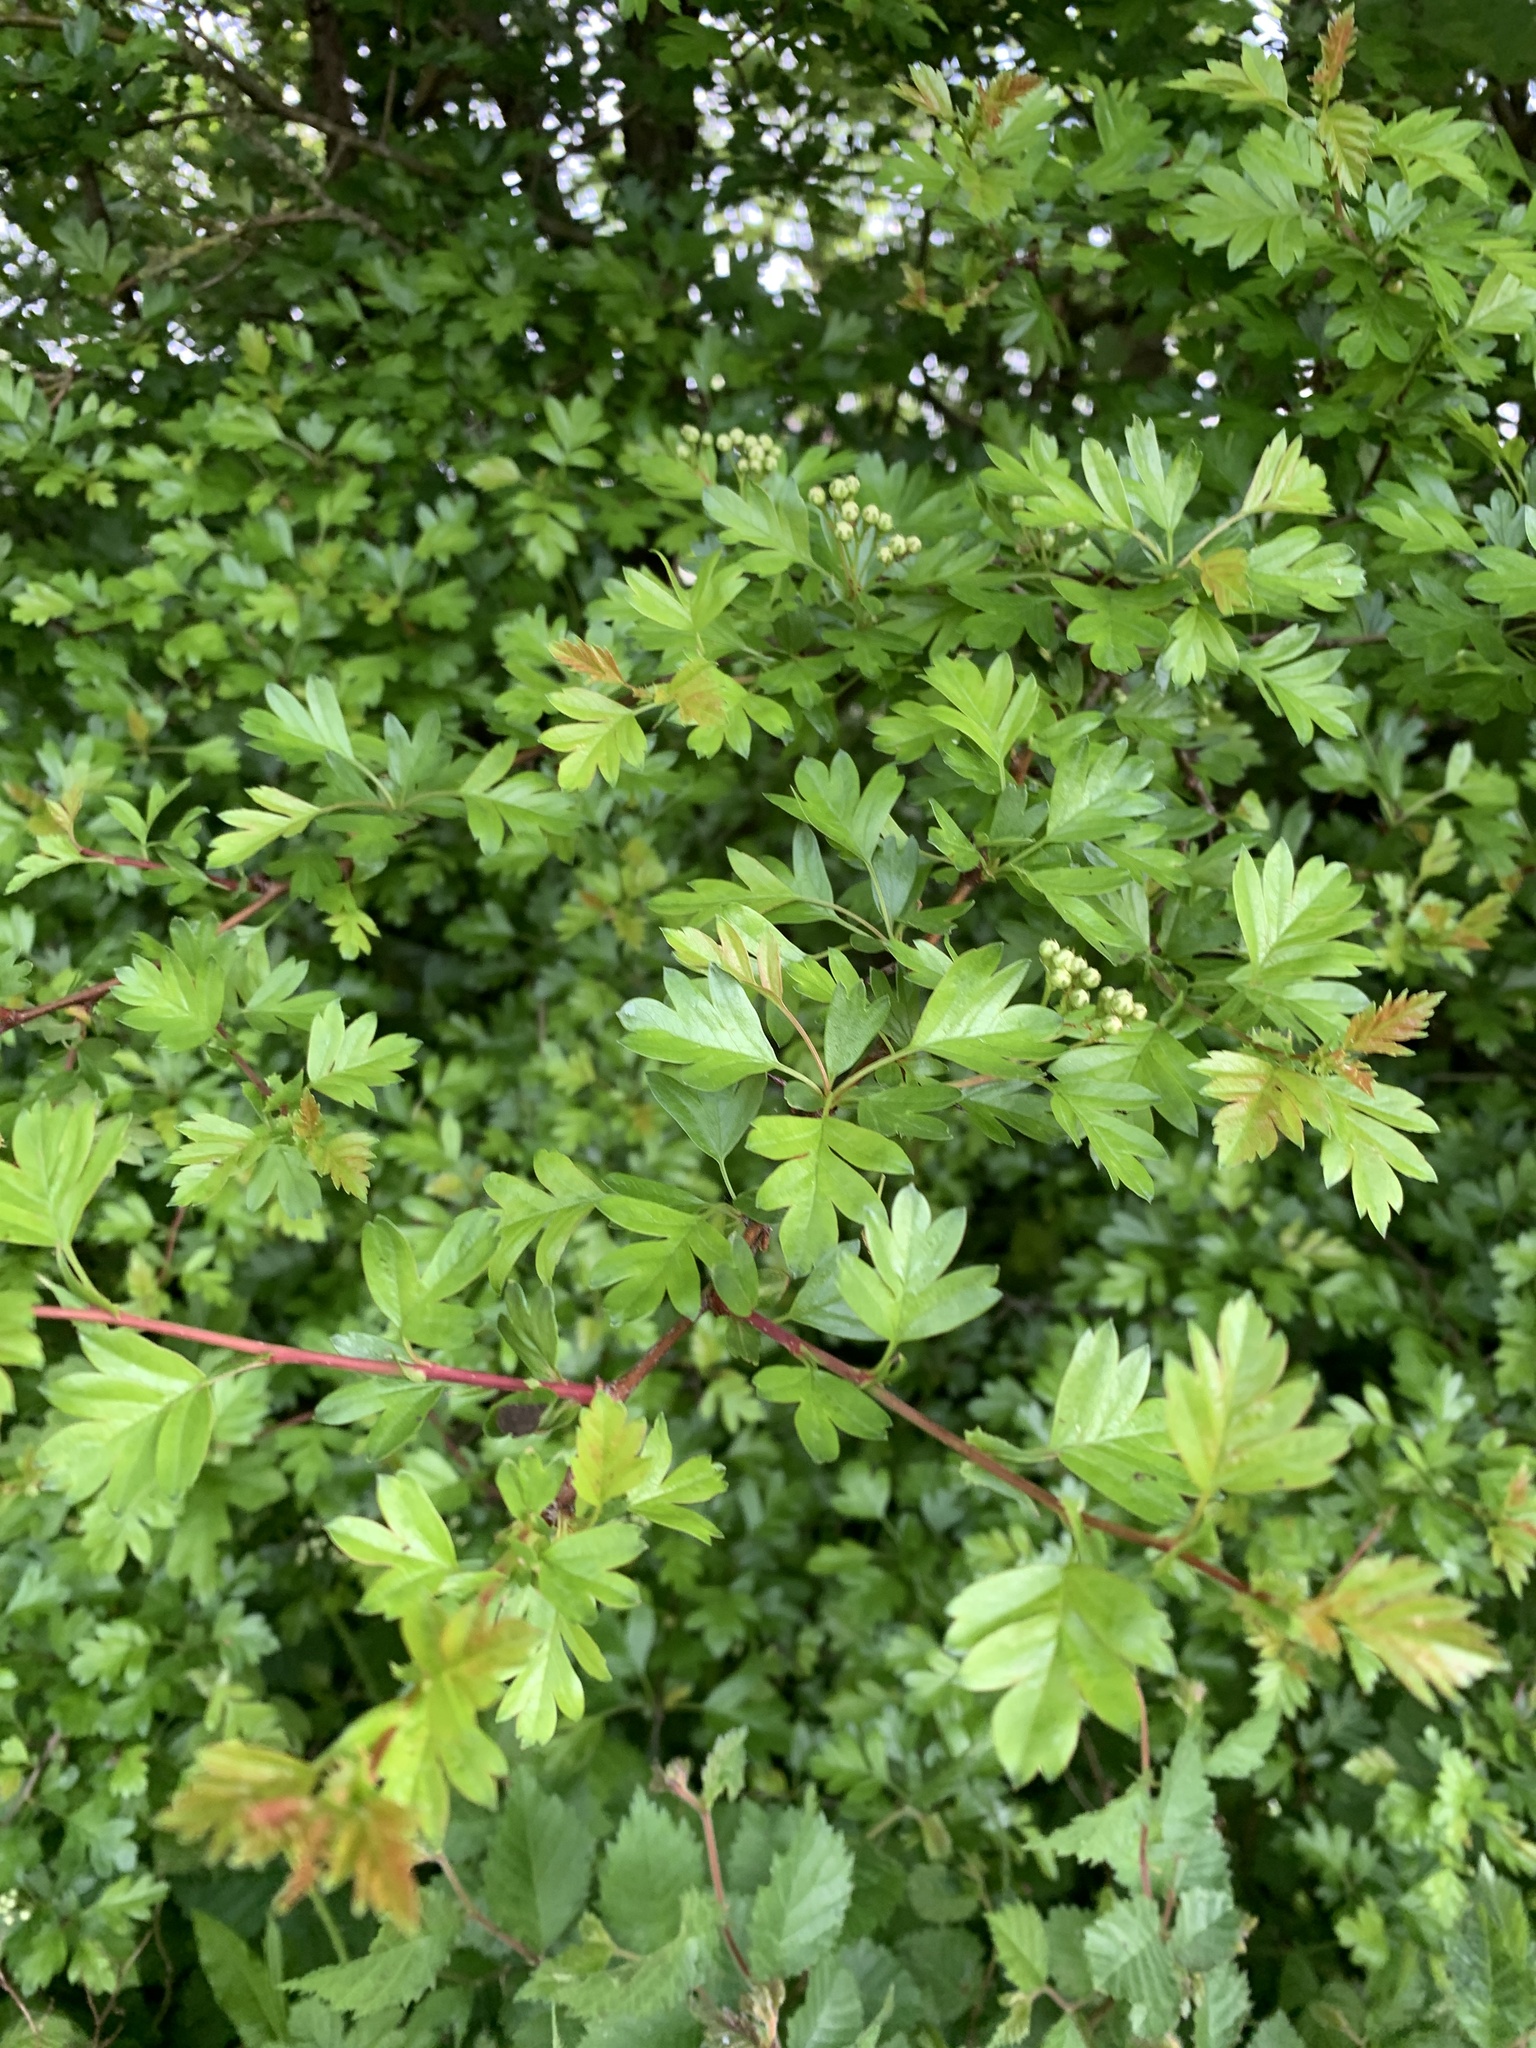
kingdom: Plantae
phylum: Tracheophyta
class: Magnoliopsida
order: Rosales
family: Rosaceae
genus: Crataegus
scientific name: Crataegus monogyna
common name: Hawthorn
